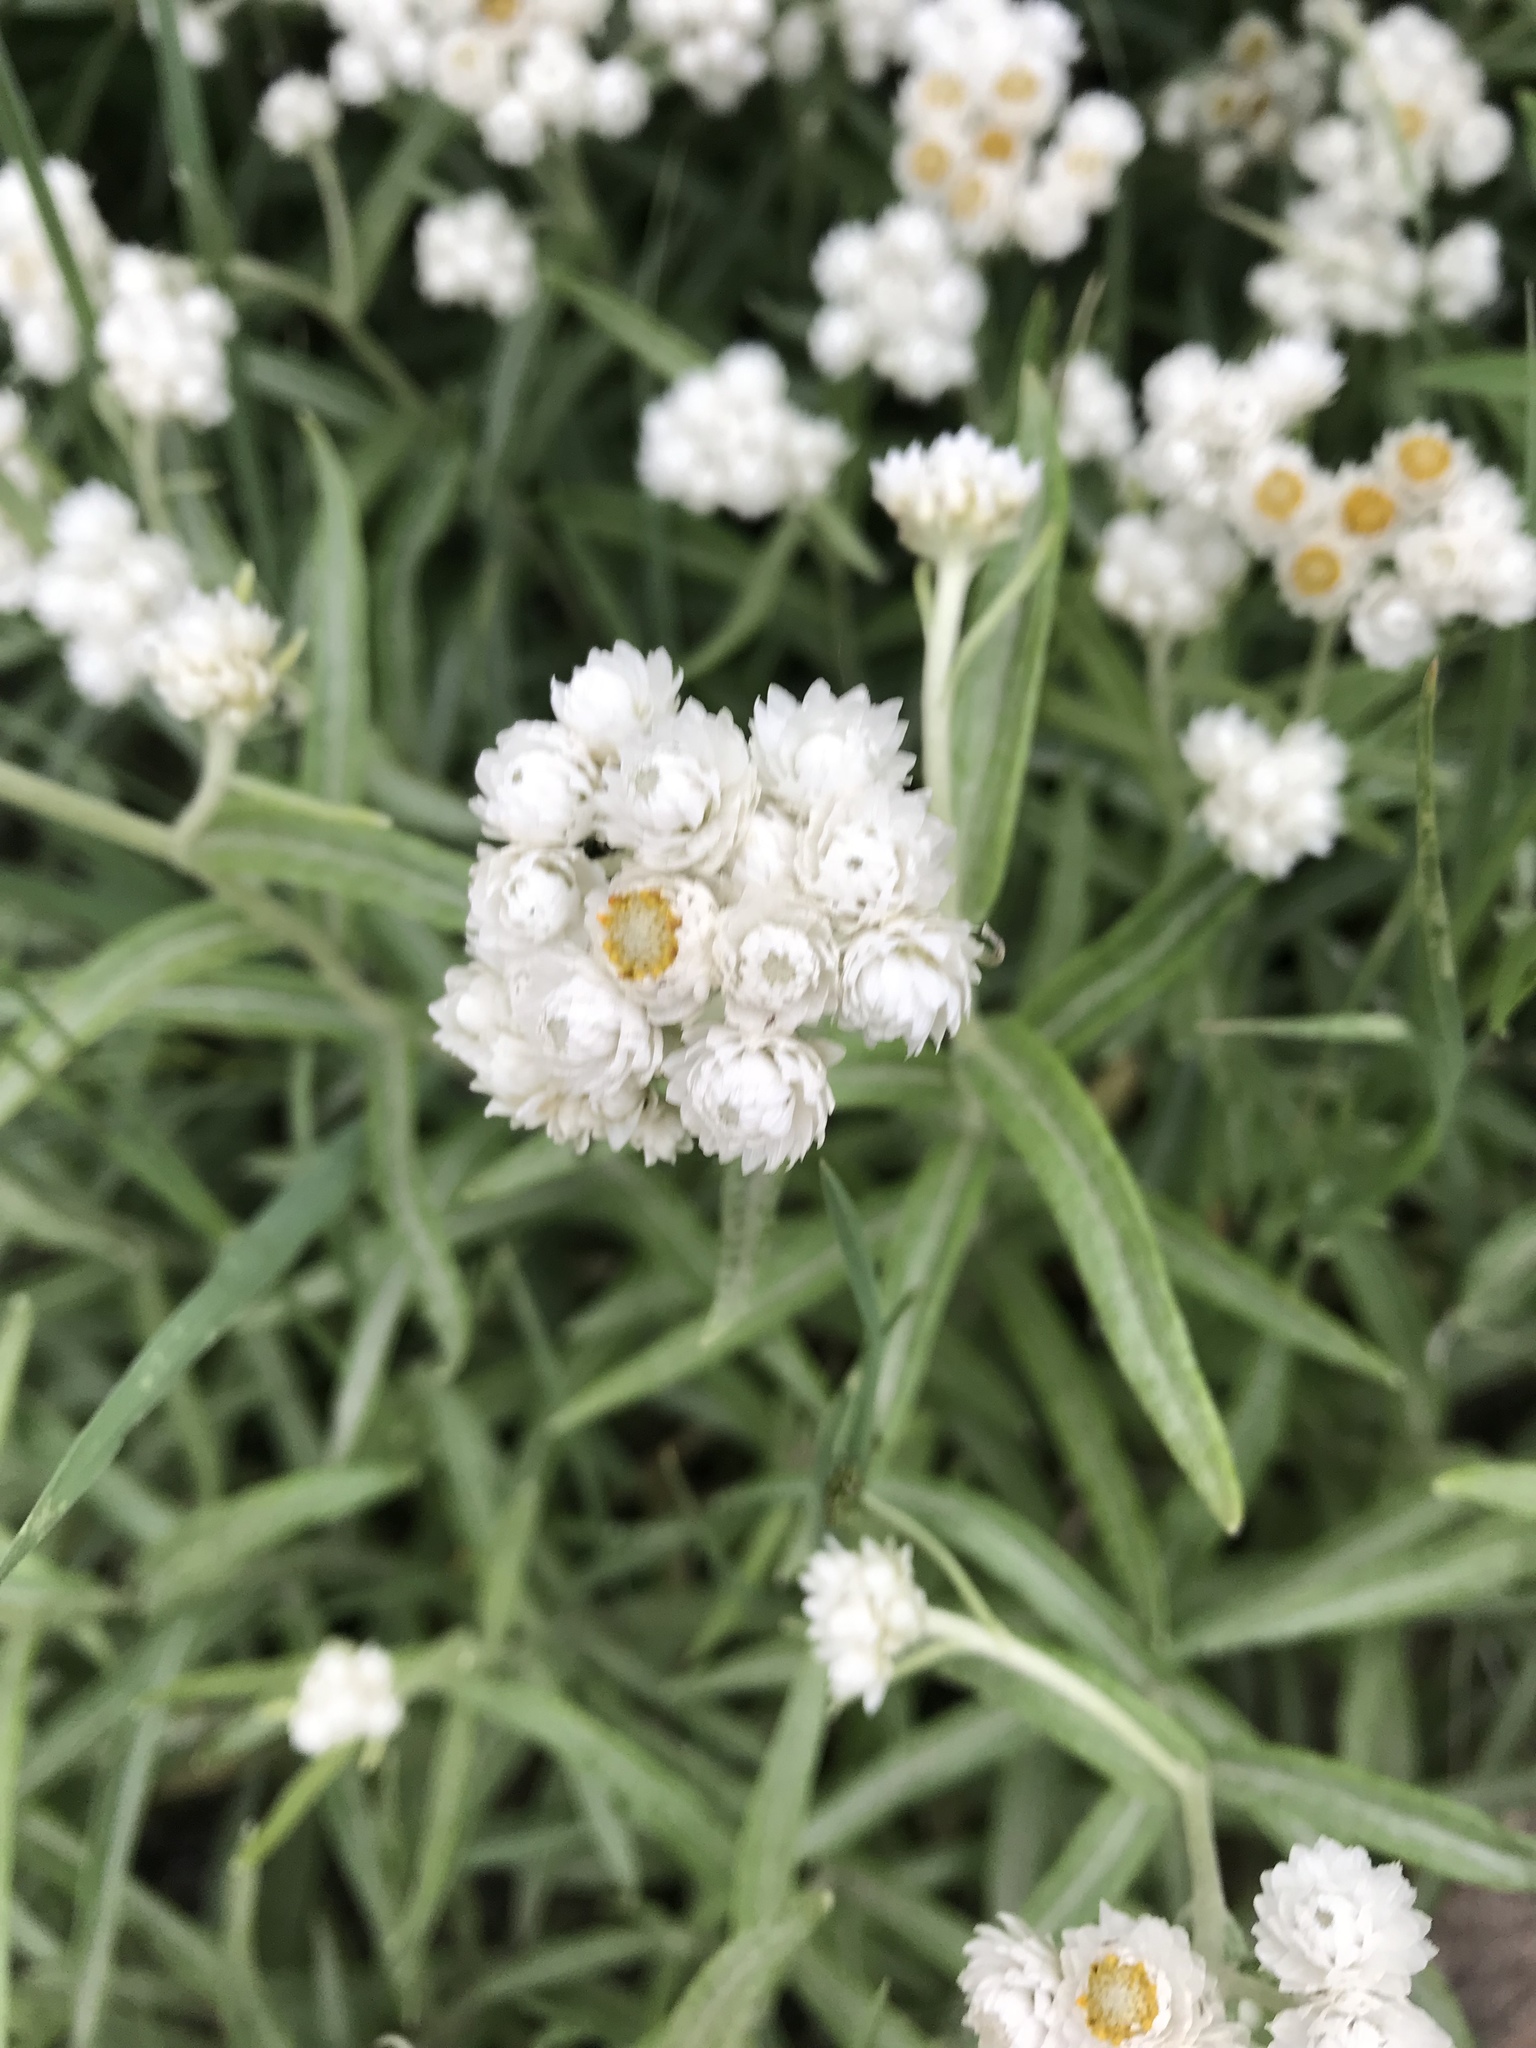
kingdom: Plantae
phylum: Tracheophyta
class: Magnoliopsida
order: Asterales
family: Asteraceae
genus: Anaphalis
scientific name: Anaphalis margaritacea
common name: Pearly everlasting
